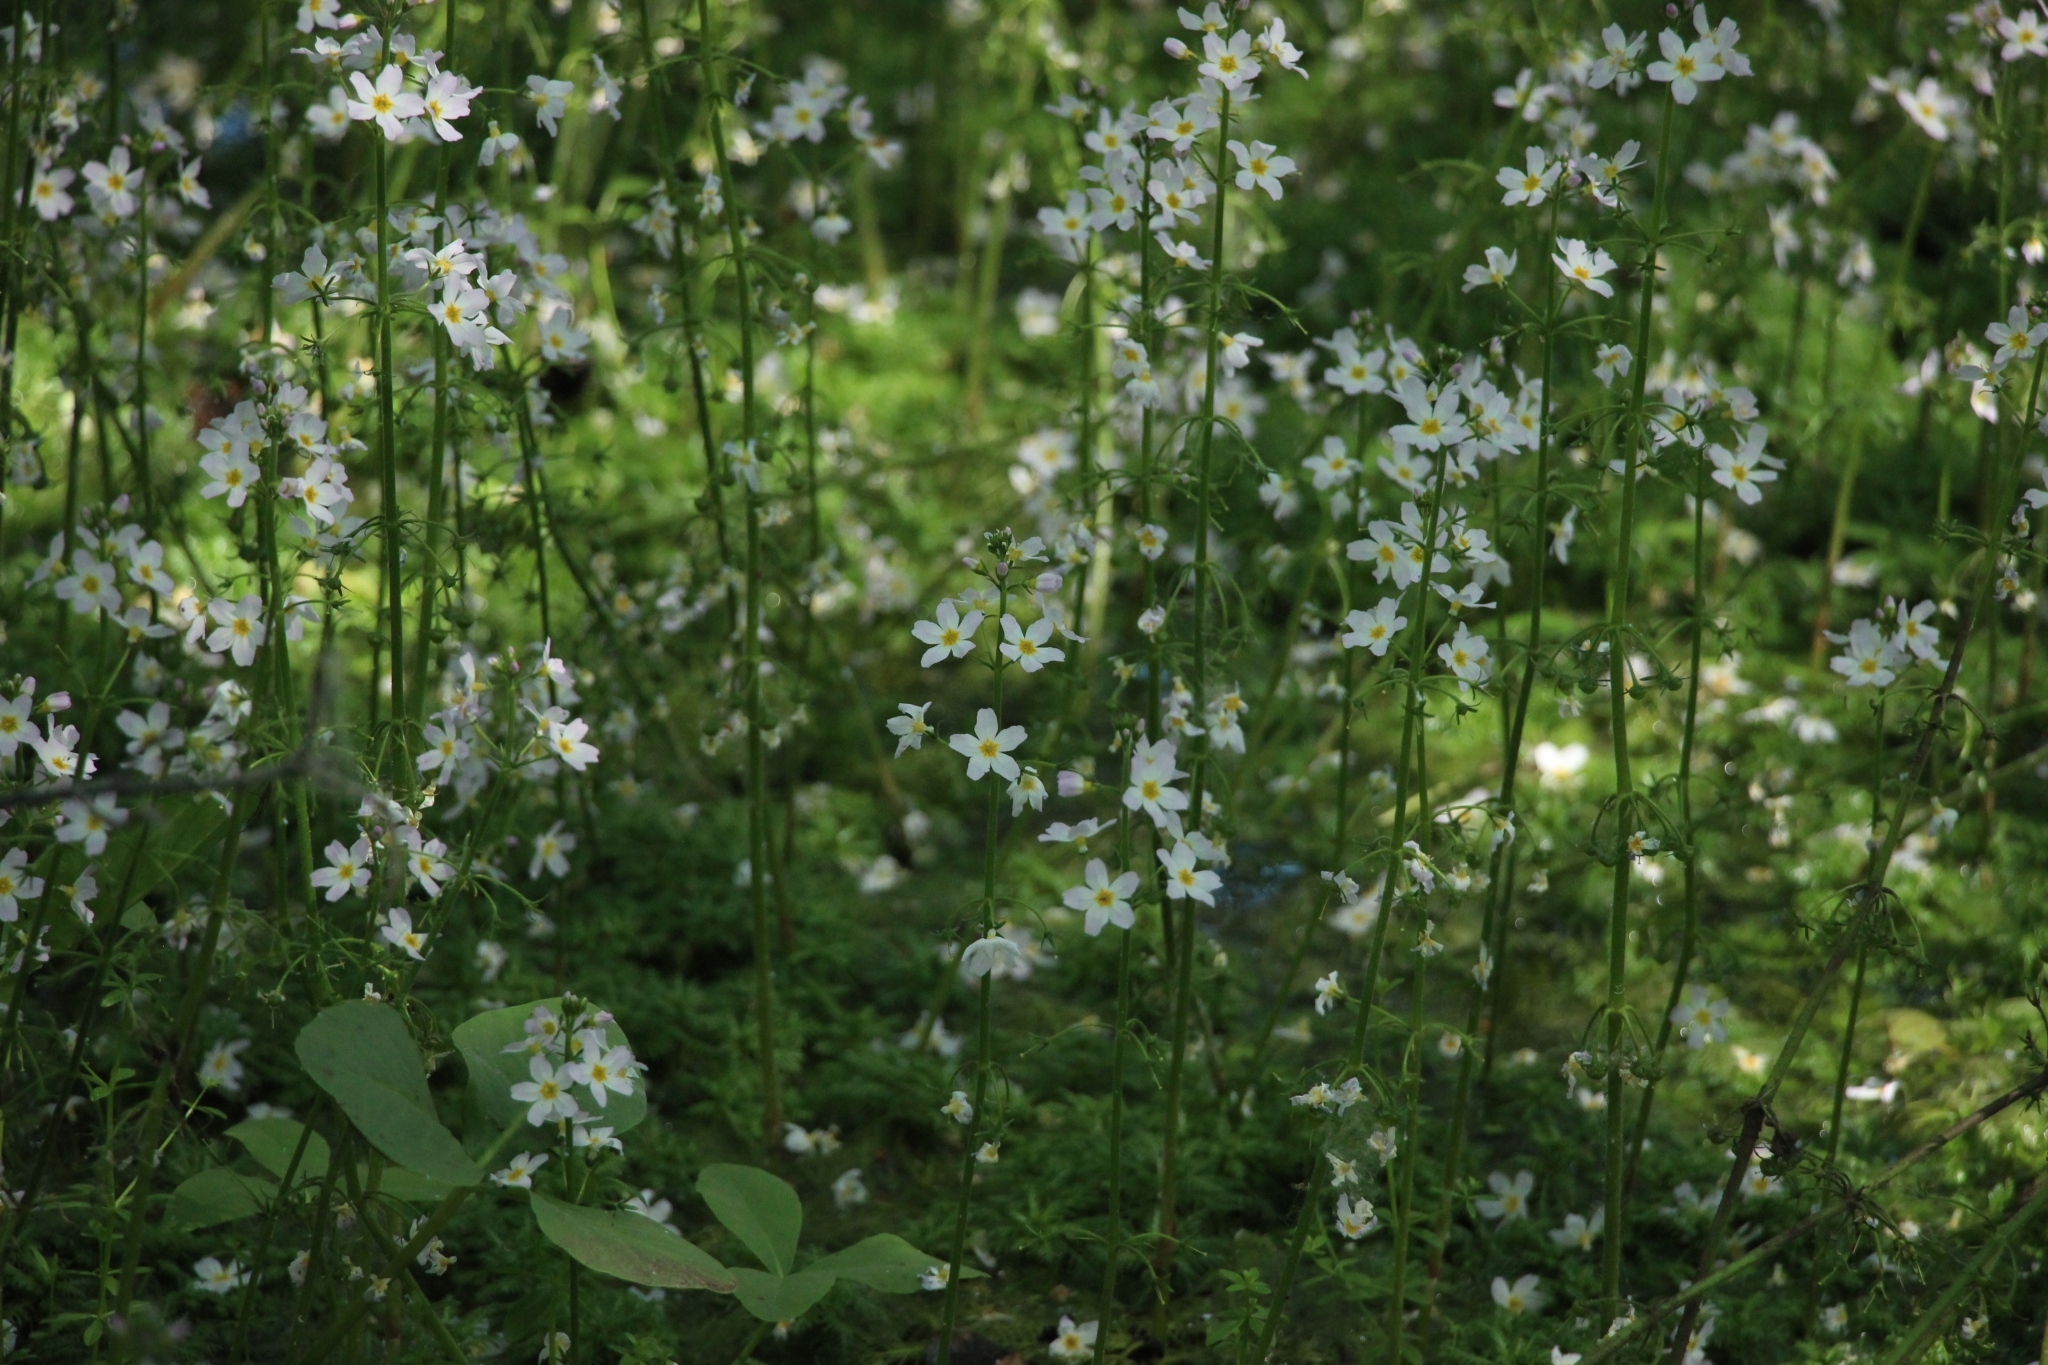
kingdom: Plantae
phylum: Tracheophyta
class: Magnoliopsida
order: Ericales
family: Primulaceae
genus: Hottonia
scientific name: Hottonia palustris
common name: Water-violet
